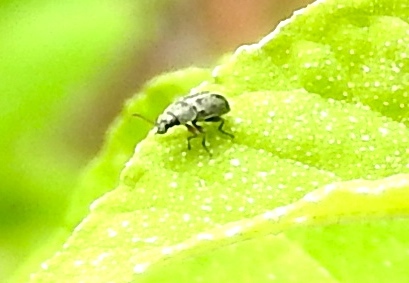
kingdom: Animalia
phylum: Arthropoda
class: Insecta
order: Coleoptera
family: Dasytidae
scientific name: Dasytidae
